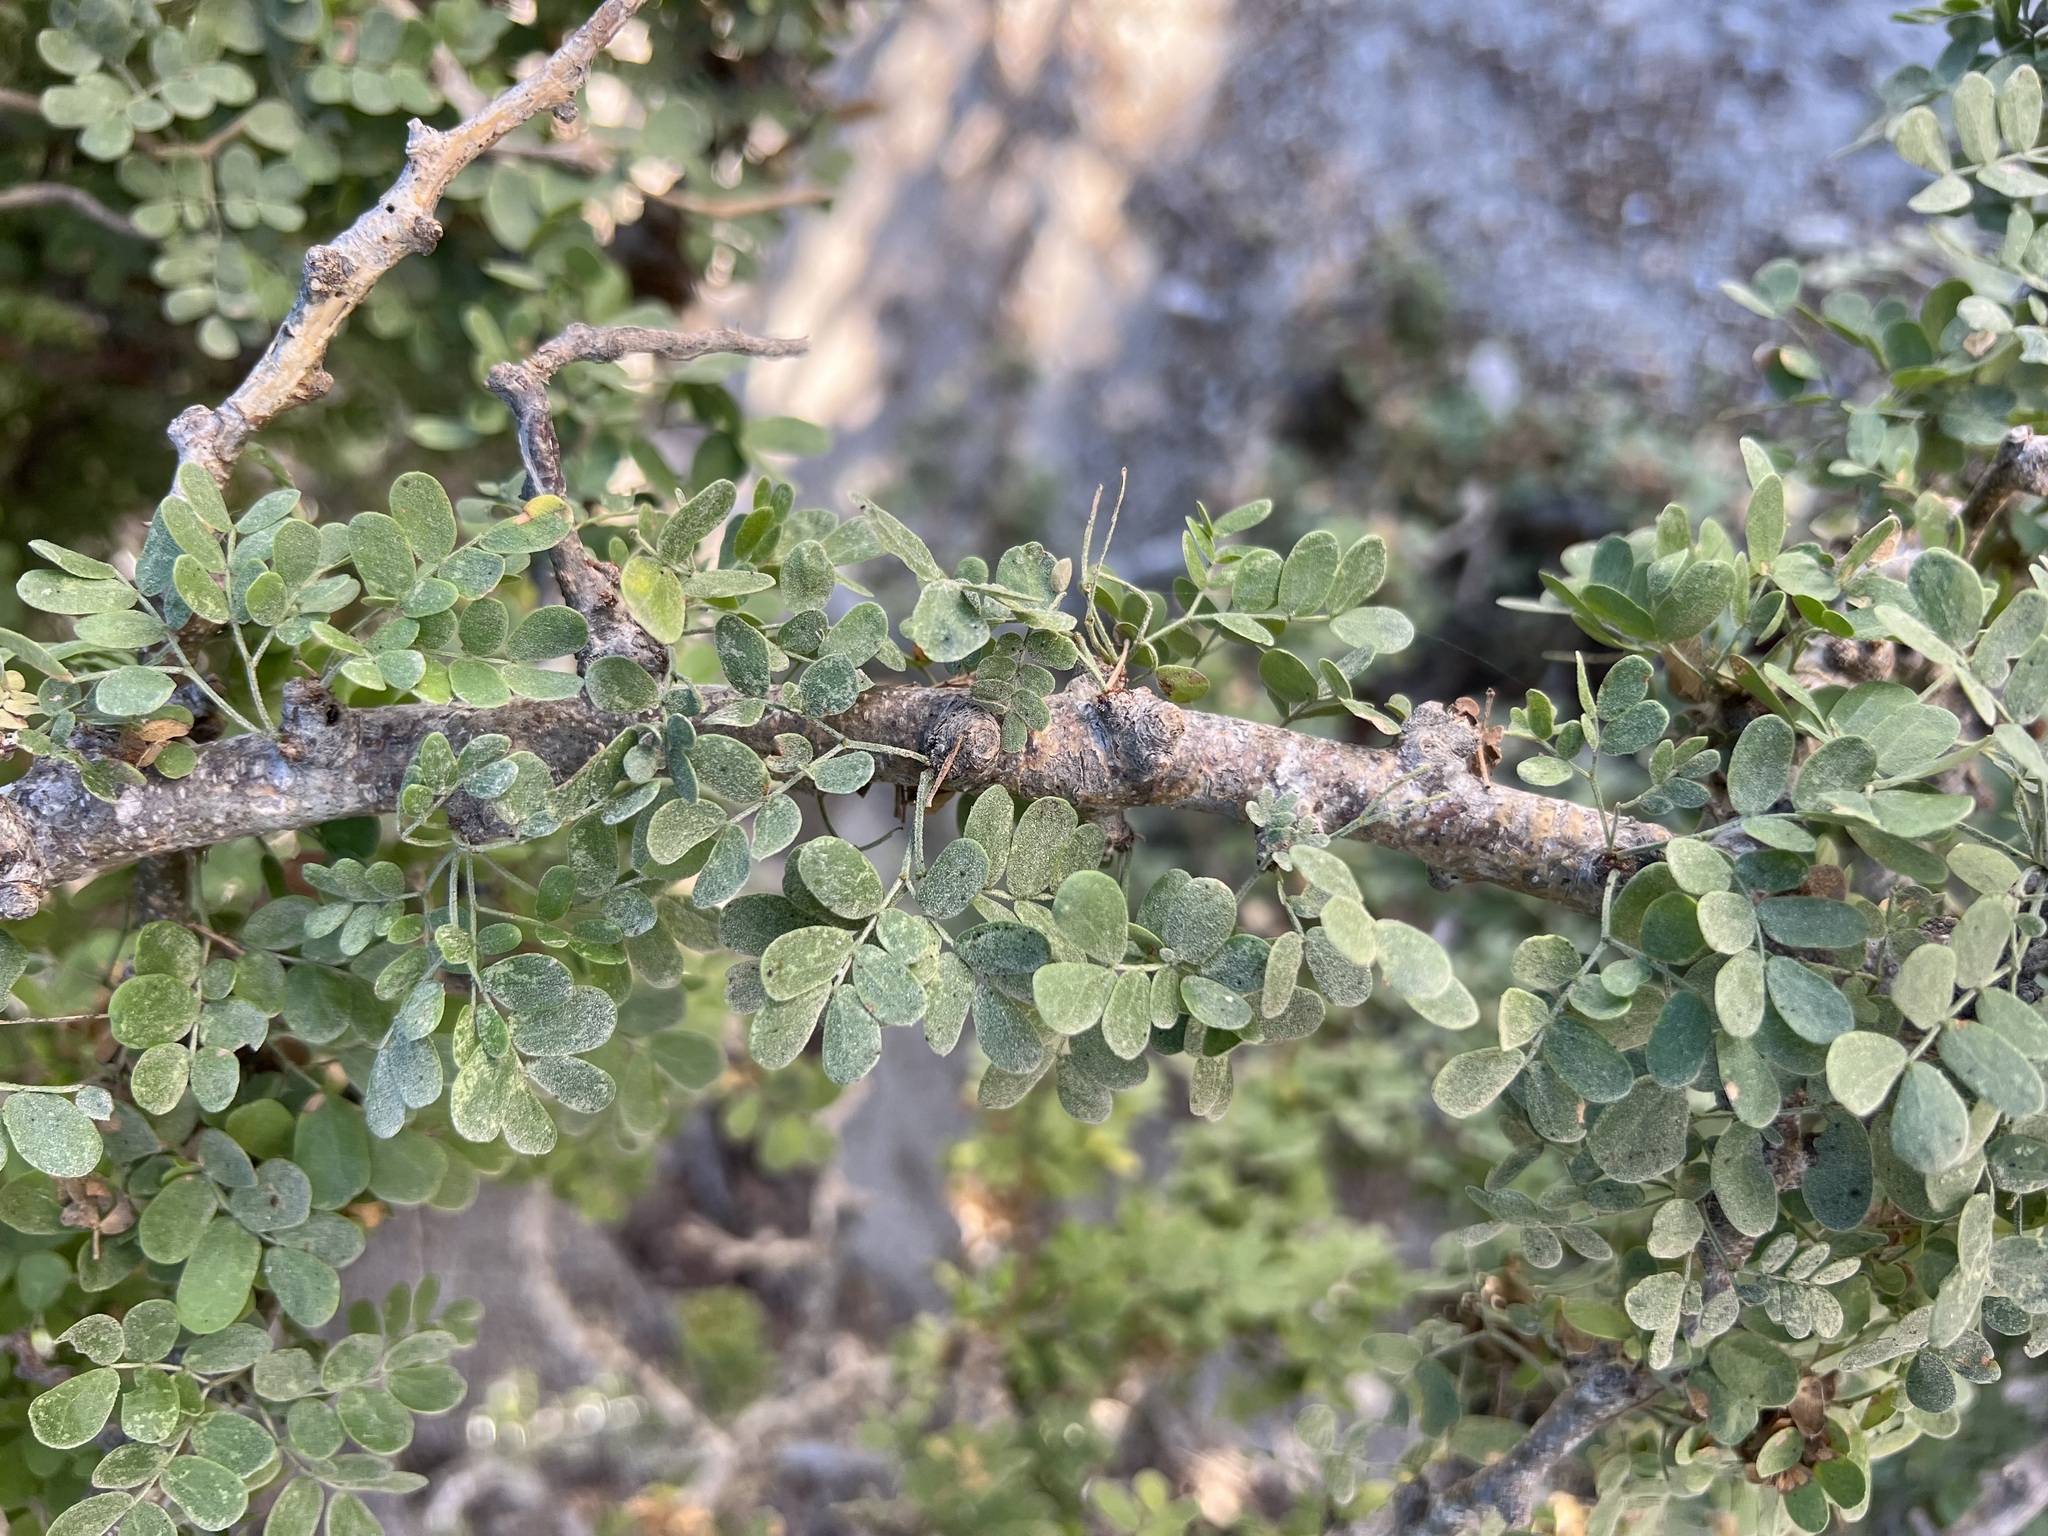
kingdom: Plantae
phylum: Tracheophyta
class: Magnoliopsida
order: Fabales
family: Fabaceae
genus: Ebenopsis
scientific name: Ebenopsis confinis
